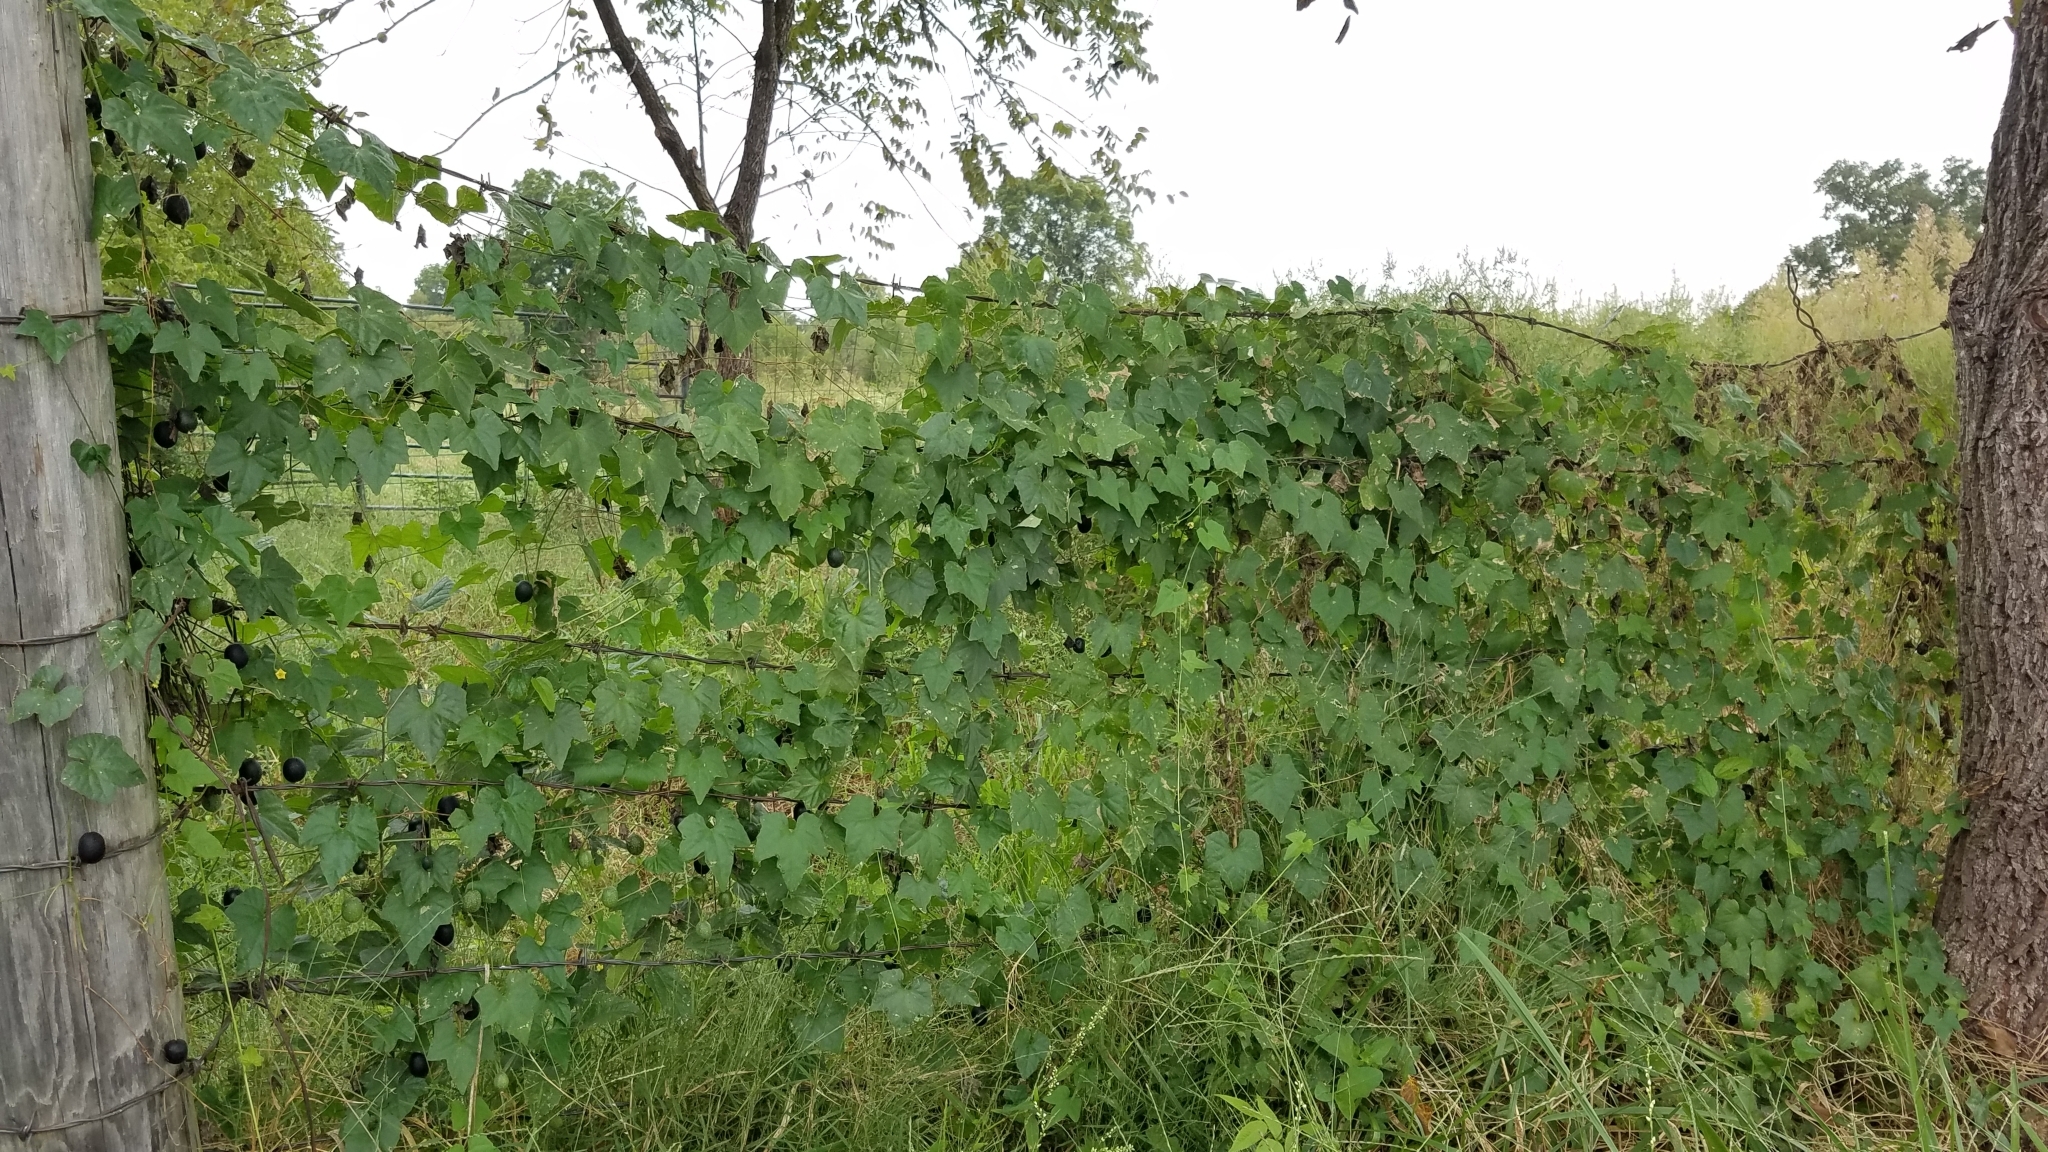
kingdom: Plantae
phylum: Tracheophyta
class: Magnoliopsida
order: Cucurbitales
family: Cucurbitaceae
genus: Melothria
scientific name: Melothria pendula
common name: Creeping-cucumber
